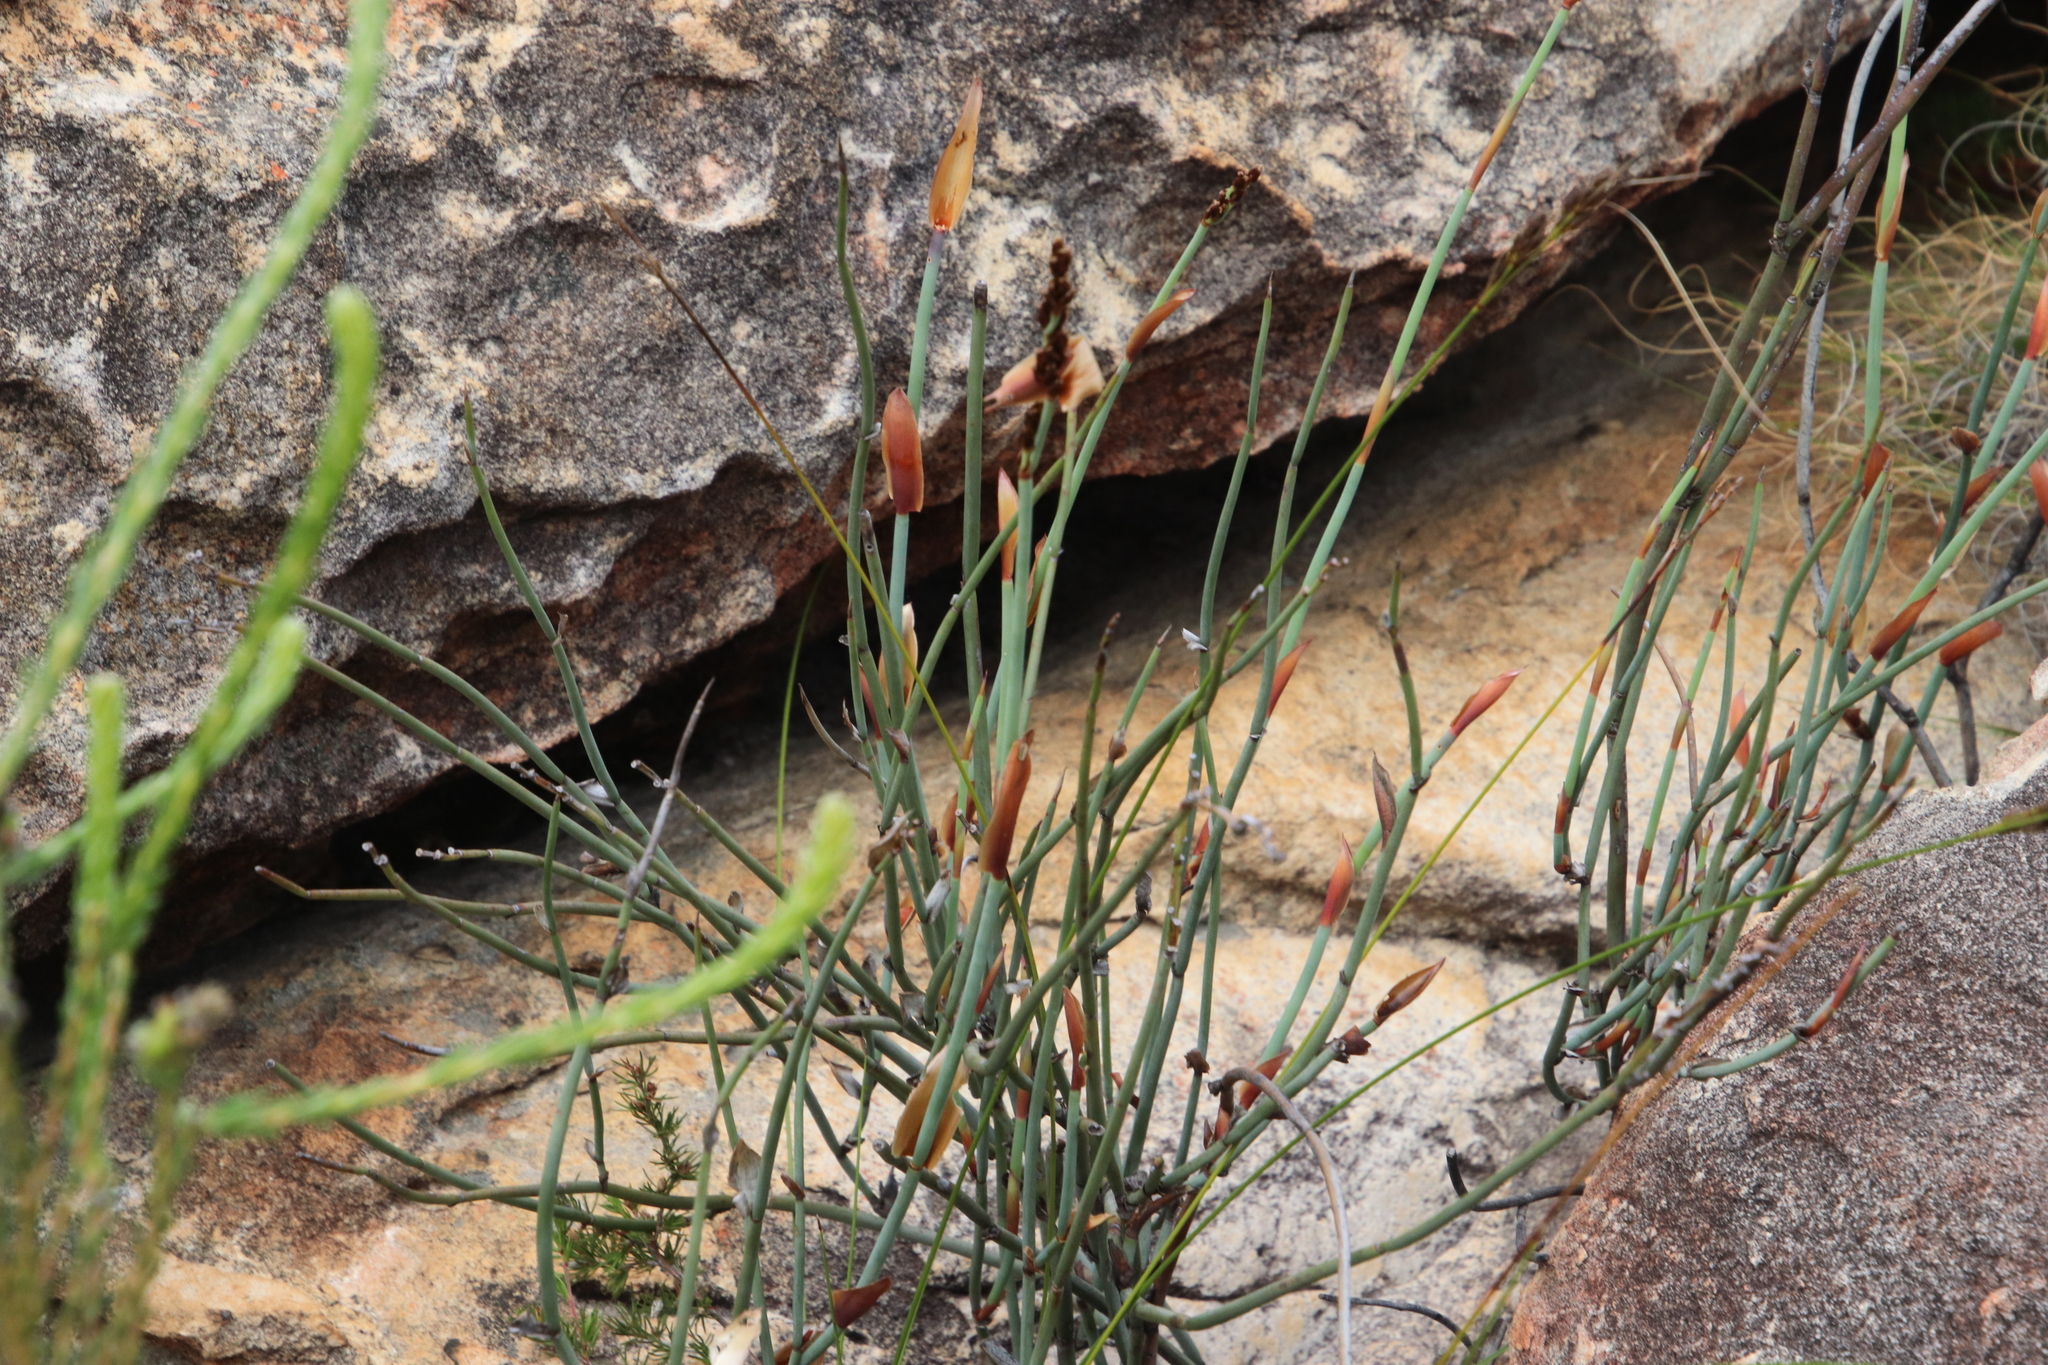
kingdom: Plantae
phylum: Tracheophyta
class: Liliopsida
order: Poales
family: Restionaceae
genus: Elegia
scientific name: Elegia hutchinsonii
